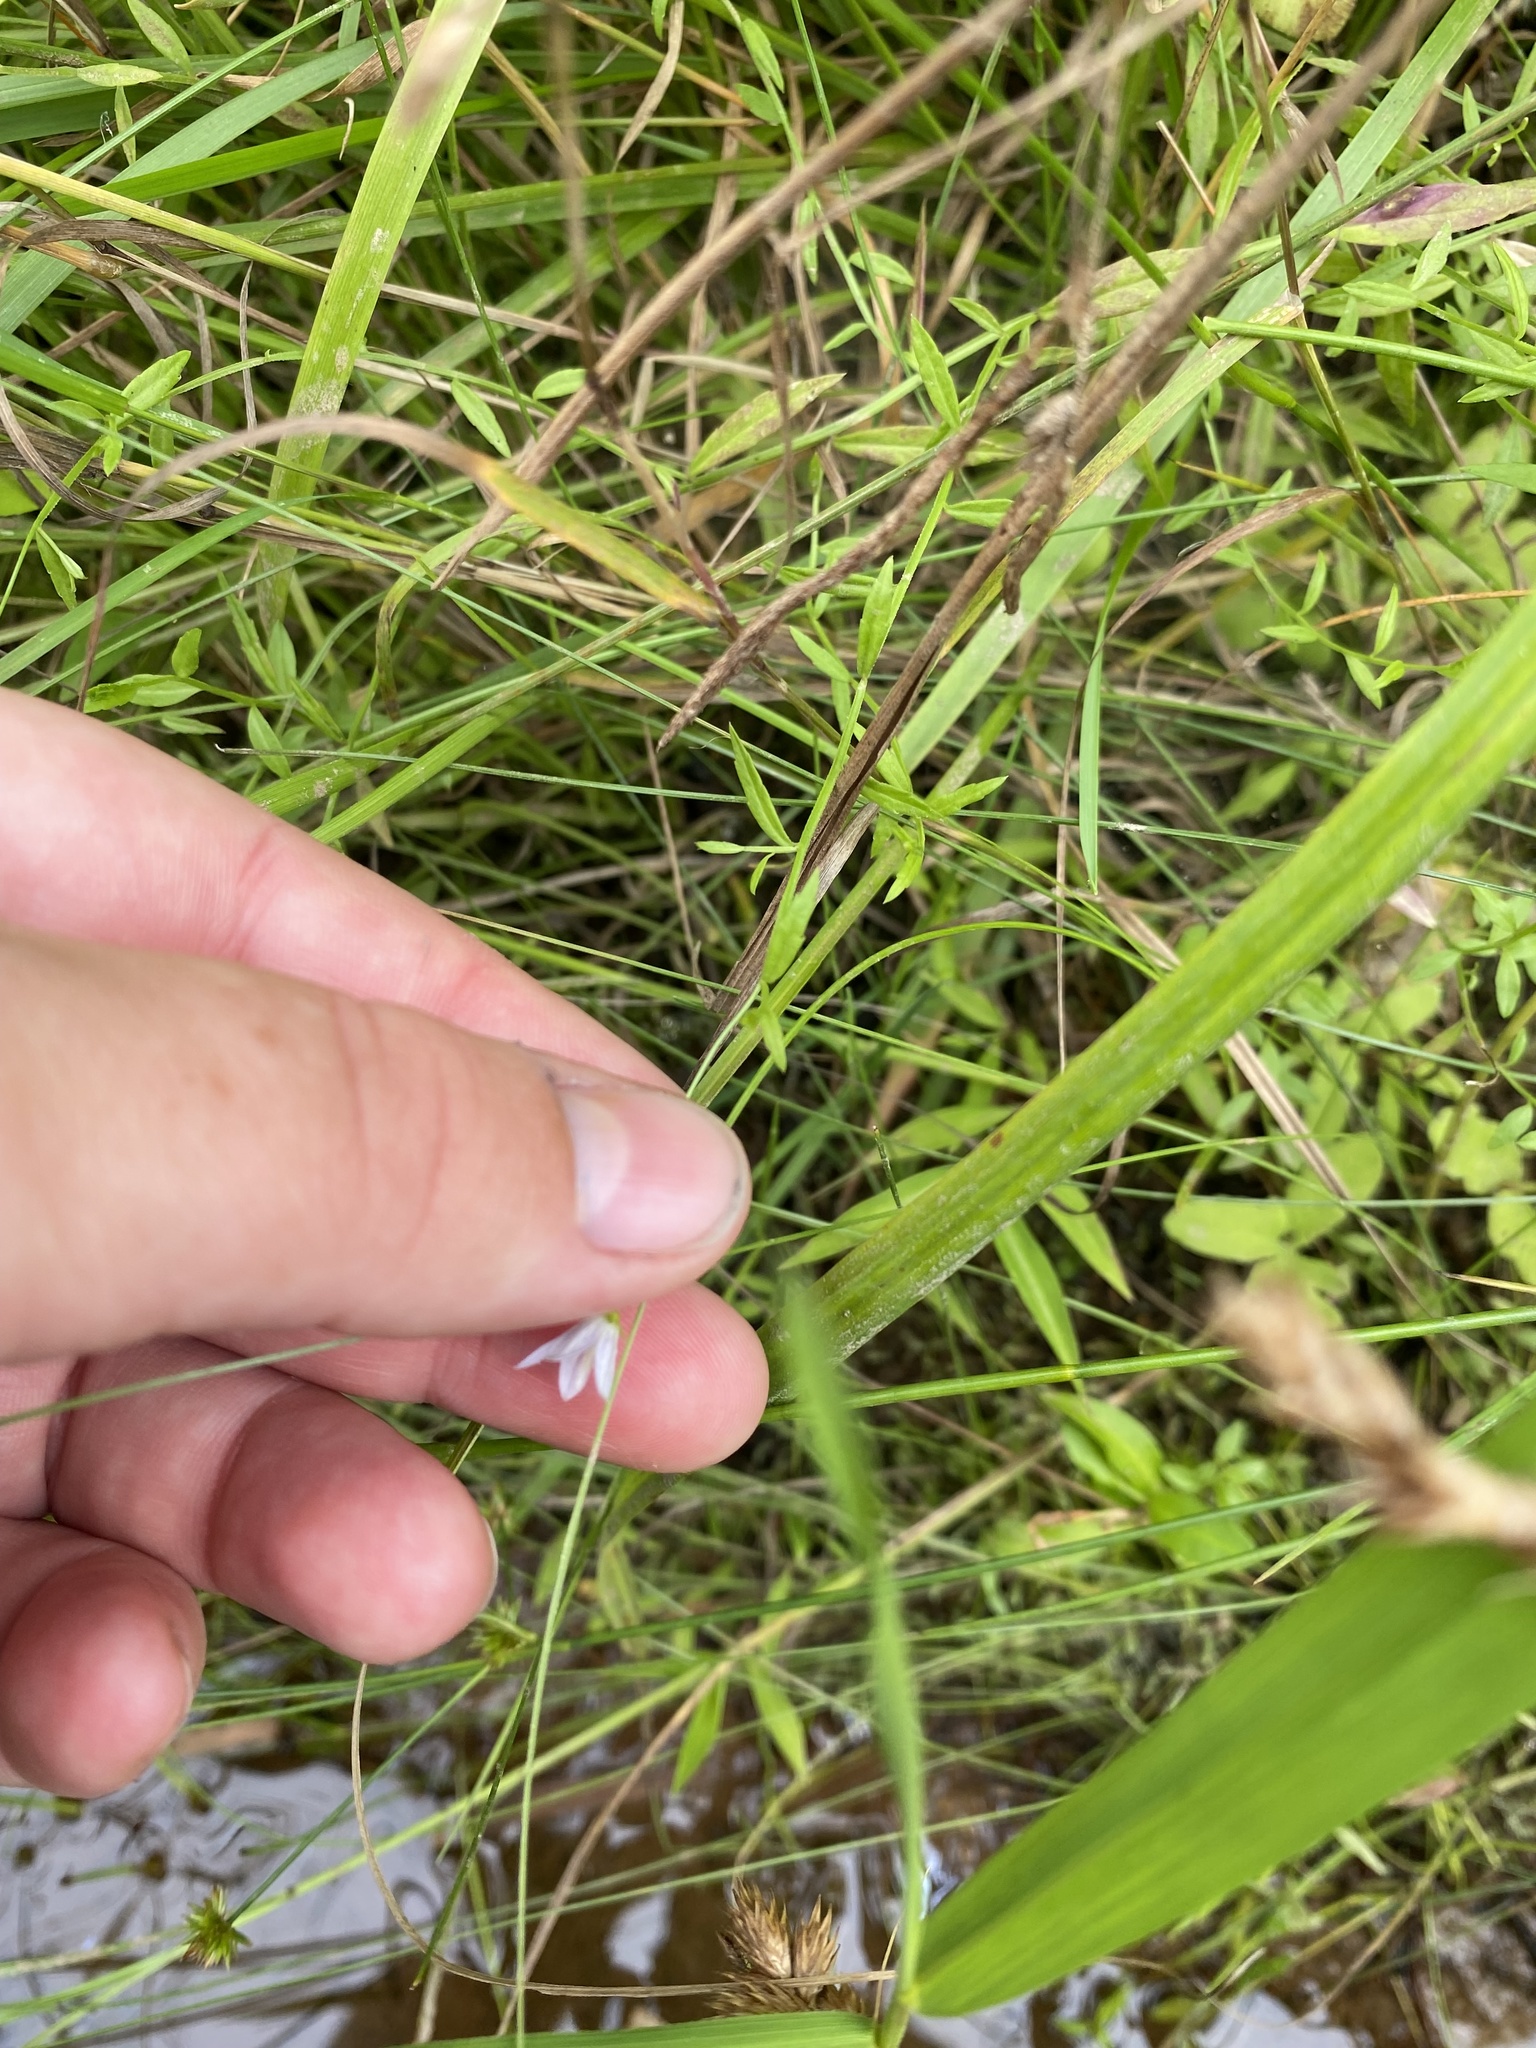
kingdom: Plantae
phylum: Tracheophyta
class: Magnoliopsida
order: Asterales
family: Campanulaceae
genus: Palustricodon
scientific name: Palustricodon aparinoides
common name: Bedstraw bellflower
